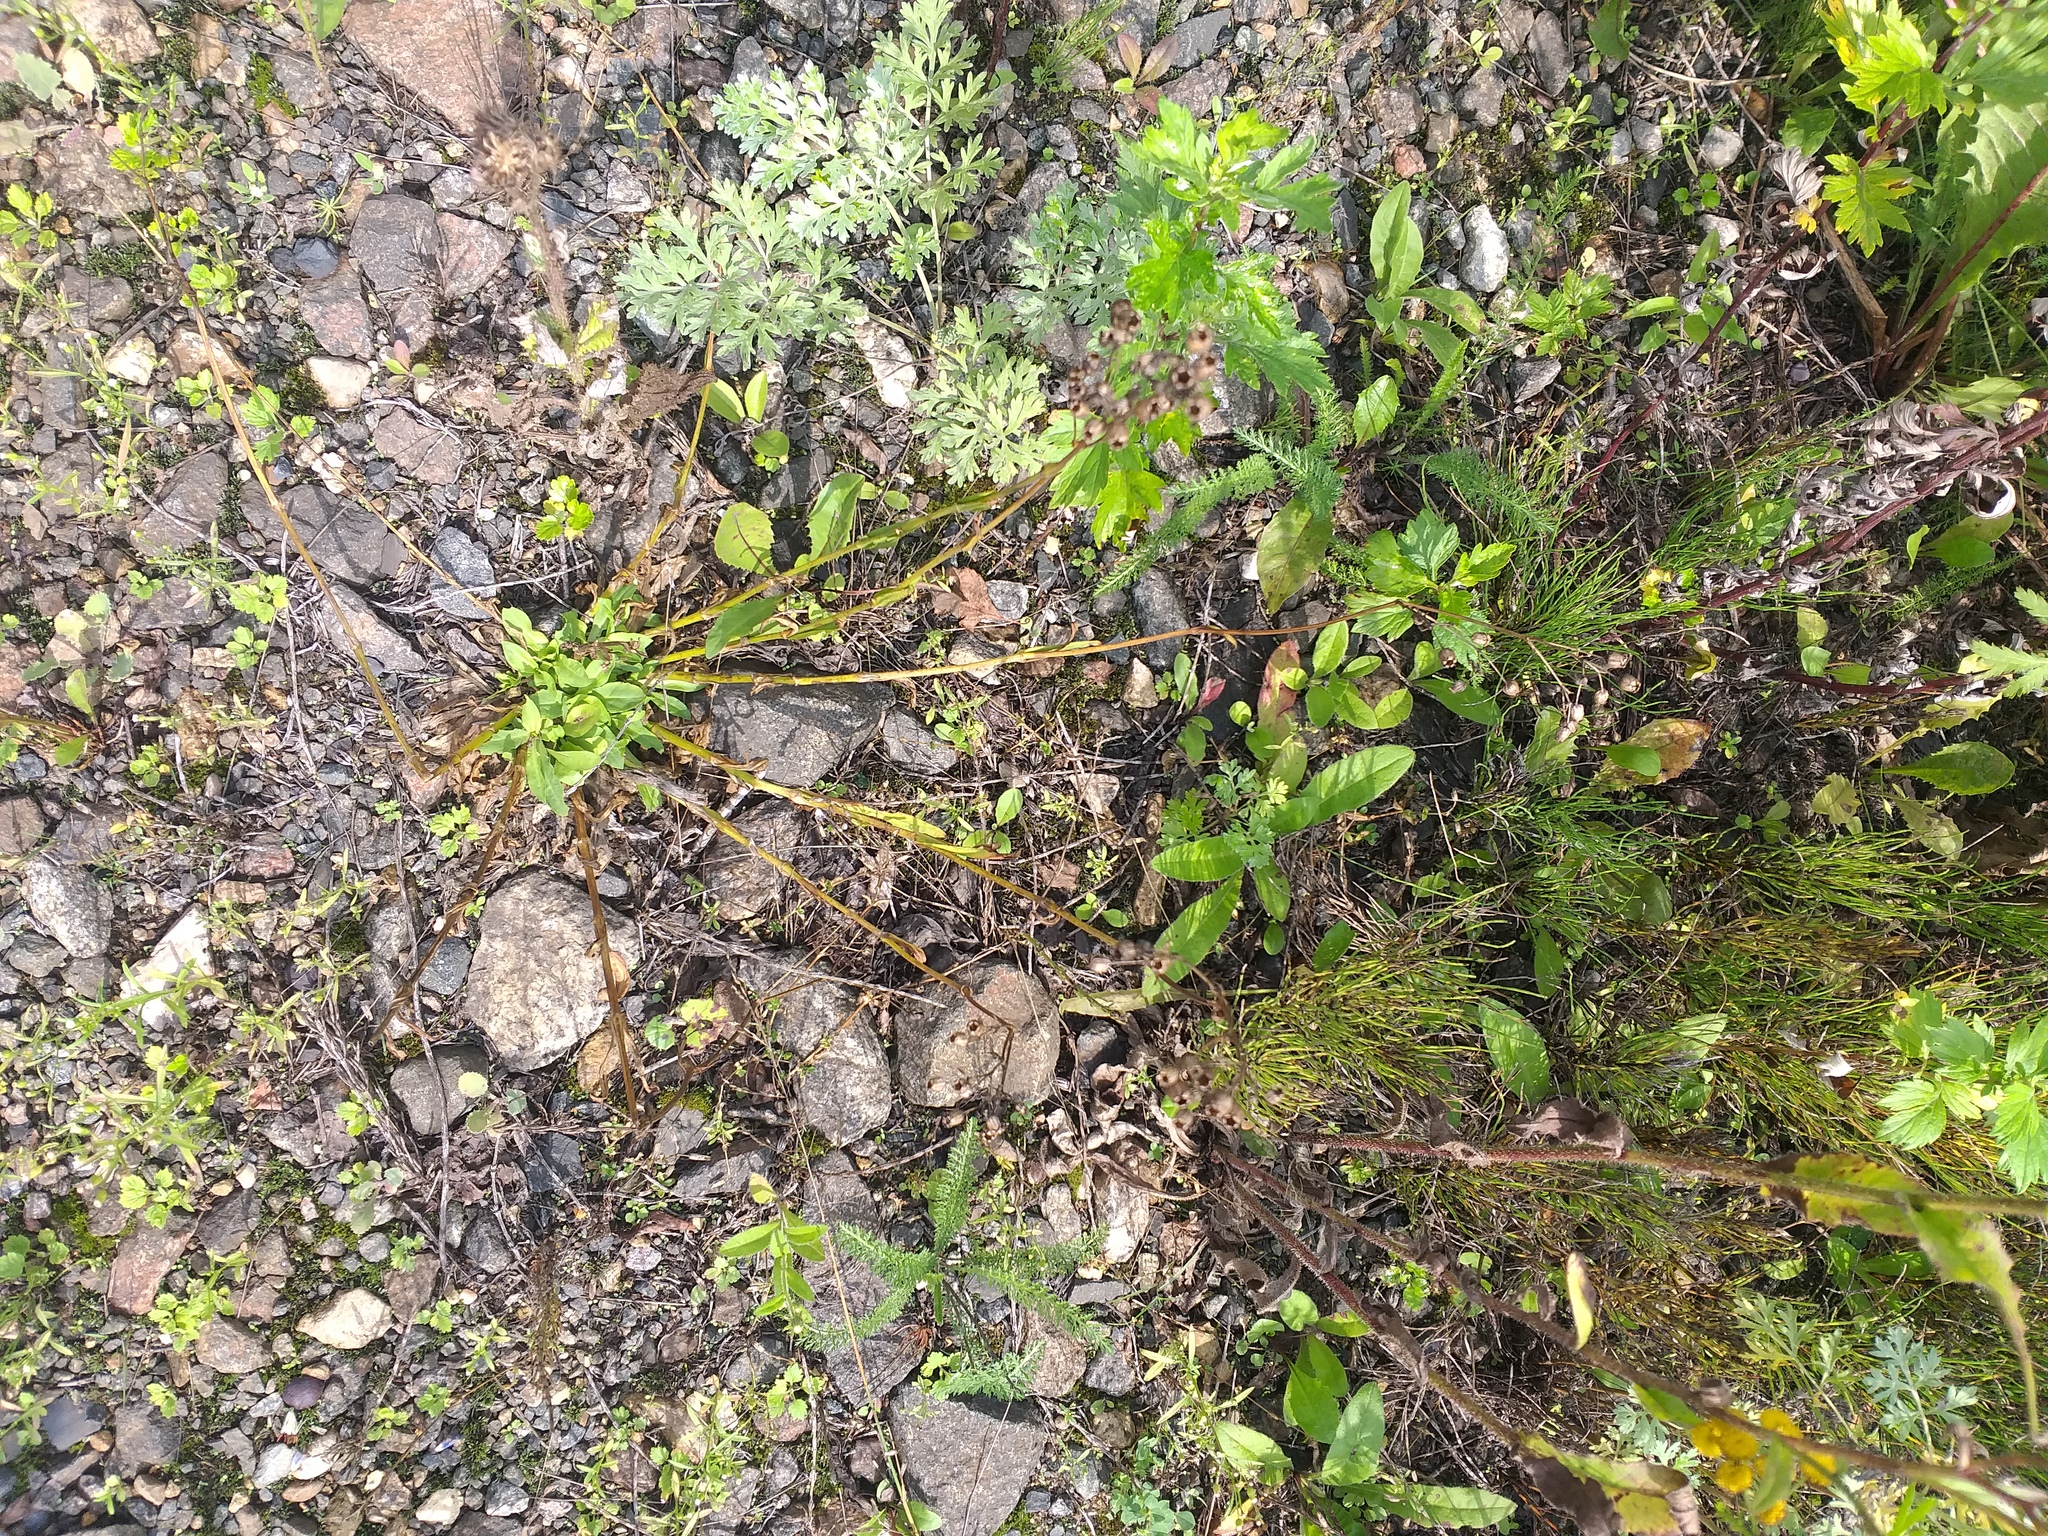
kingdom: Plantae
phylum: Tracheophyta
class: Magnoliopsida
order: Caryophyllales
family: Caryophyllaceae
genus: Silene
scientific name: Silene flos-cuculi
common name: Ragged-robin
